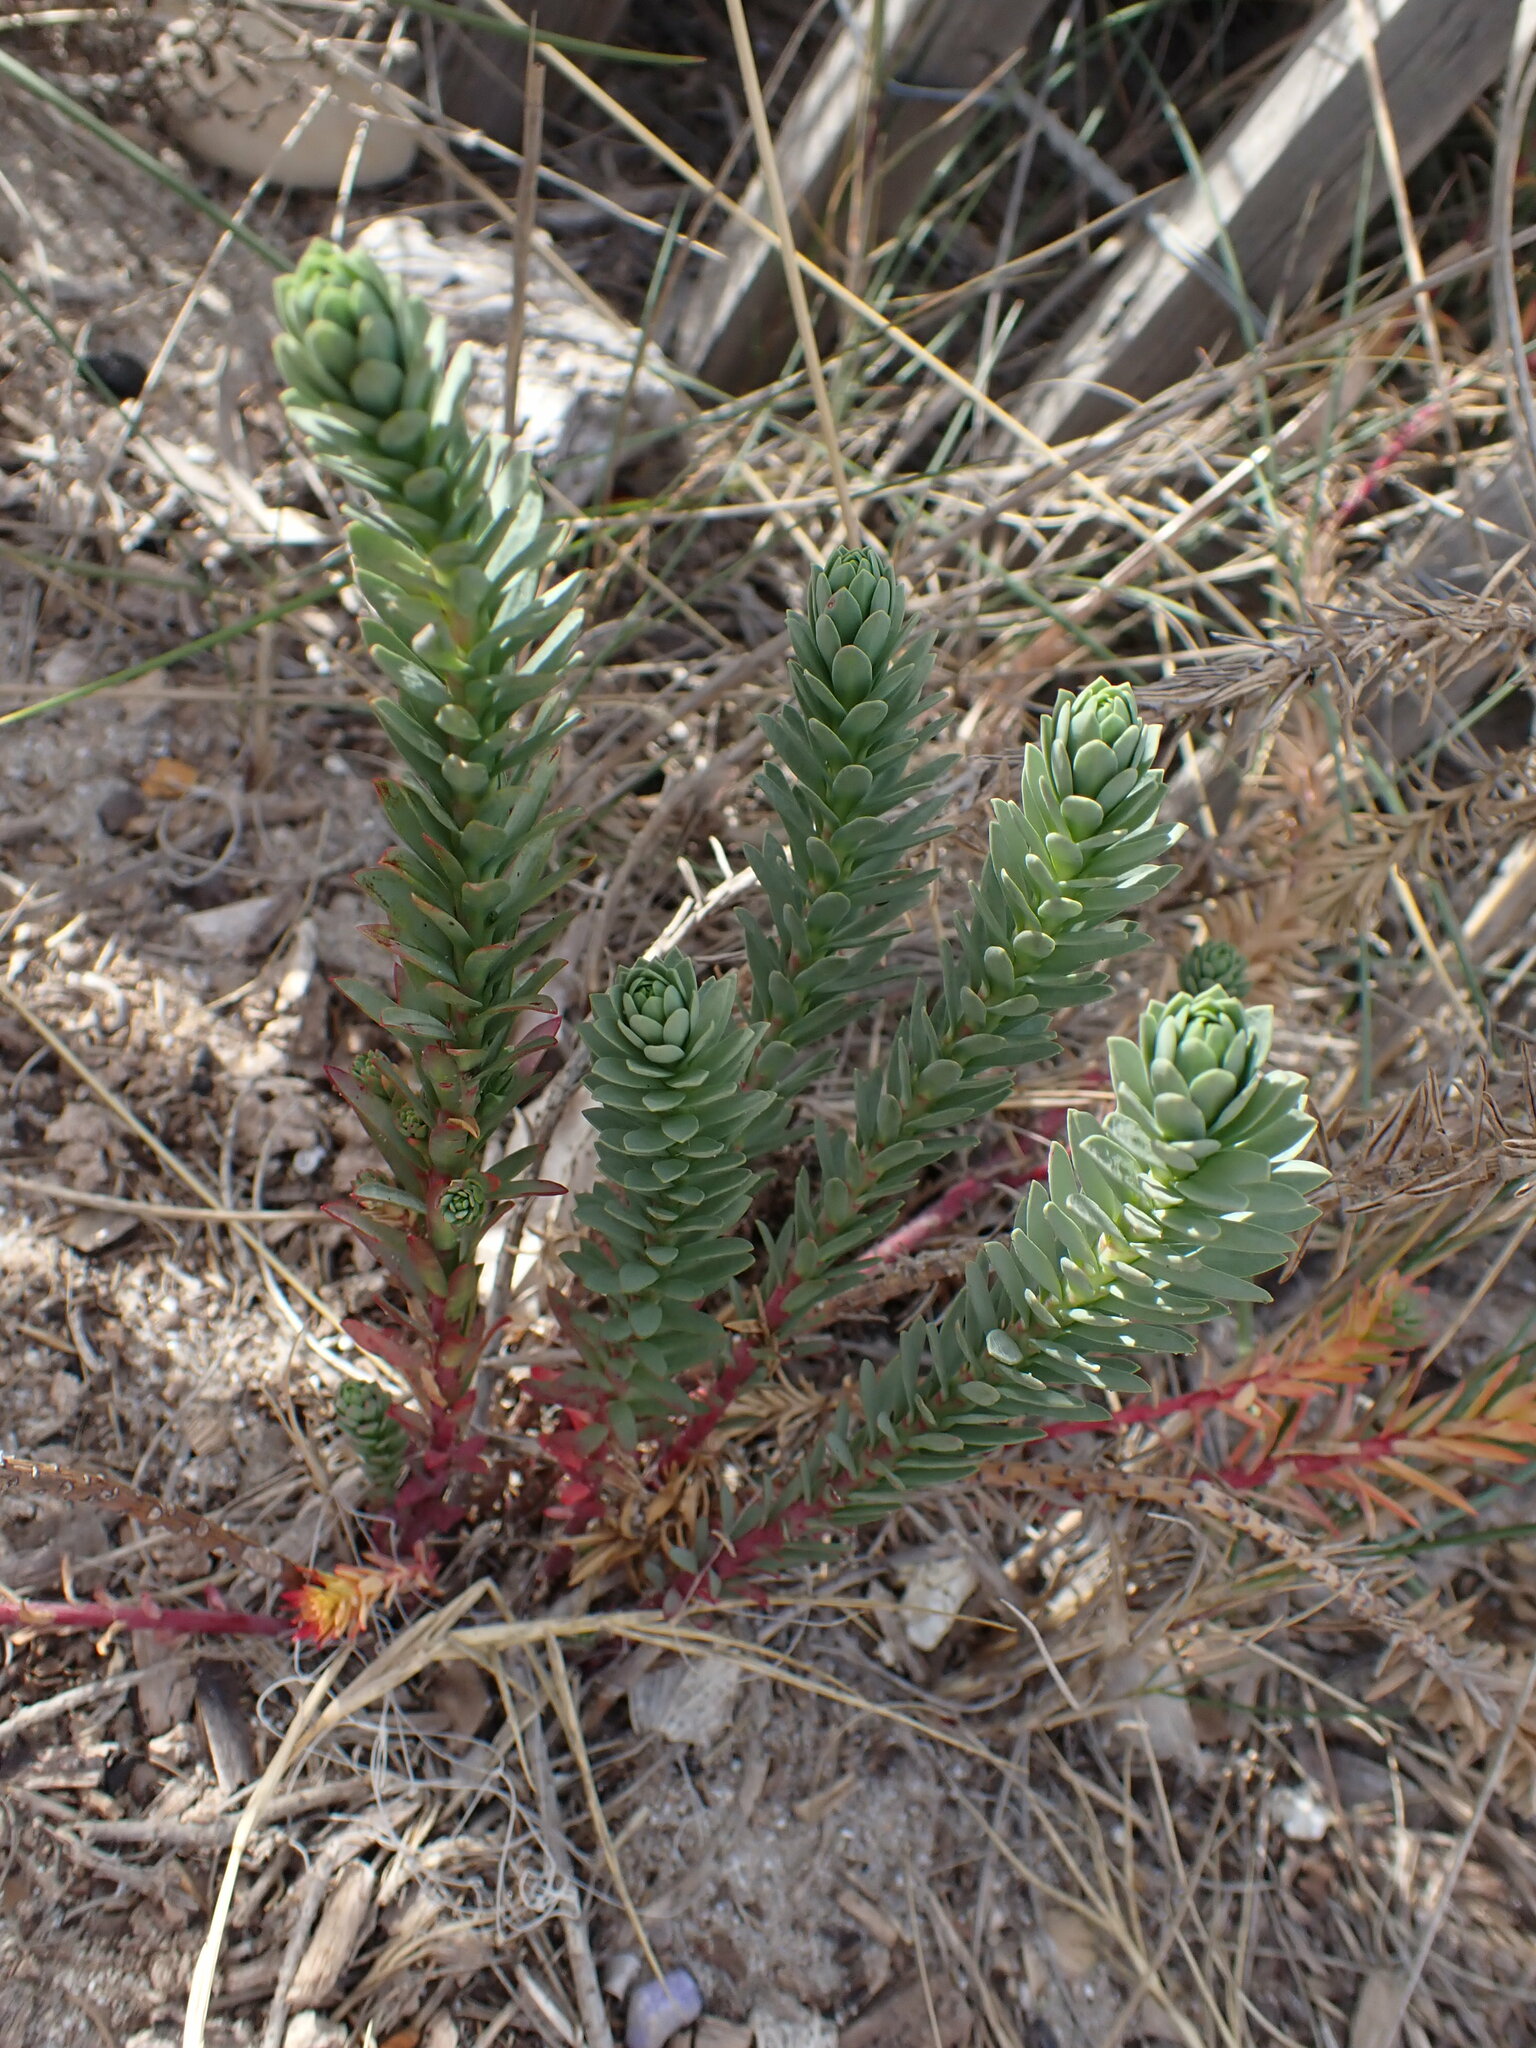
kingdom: Plantae
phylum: Tracheophyta
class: Magnoliopsida
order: Malpighiales
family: Euphorbiaceae
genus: Euphorbia
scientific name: Euphorbia paralias
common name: Sea spurge
